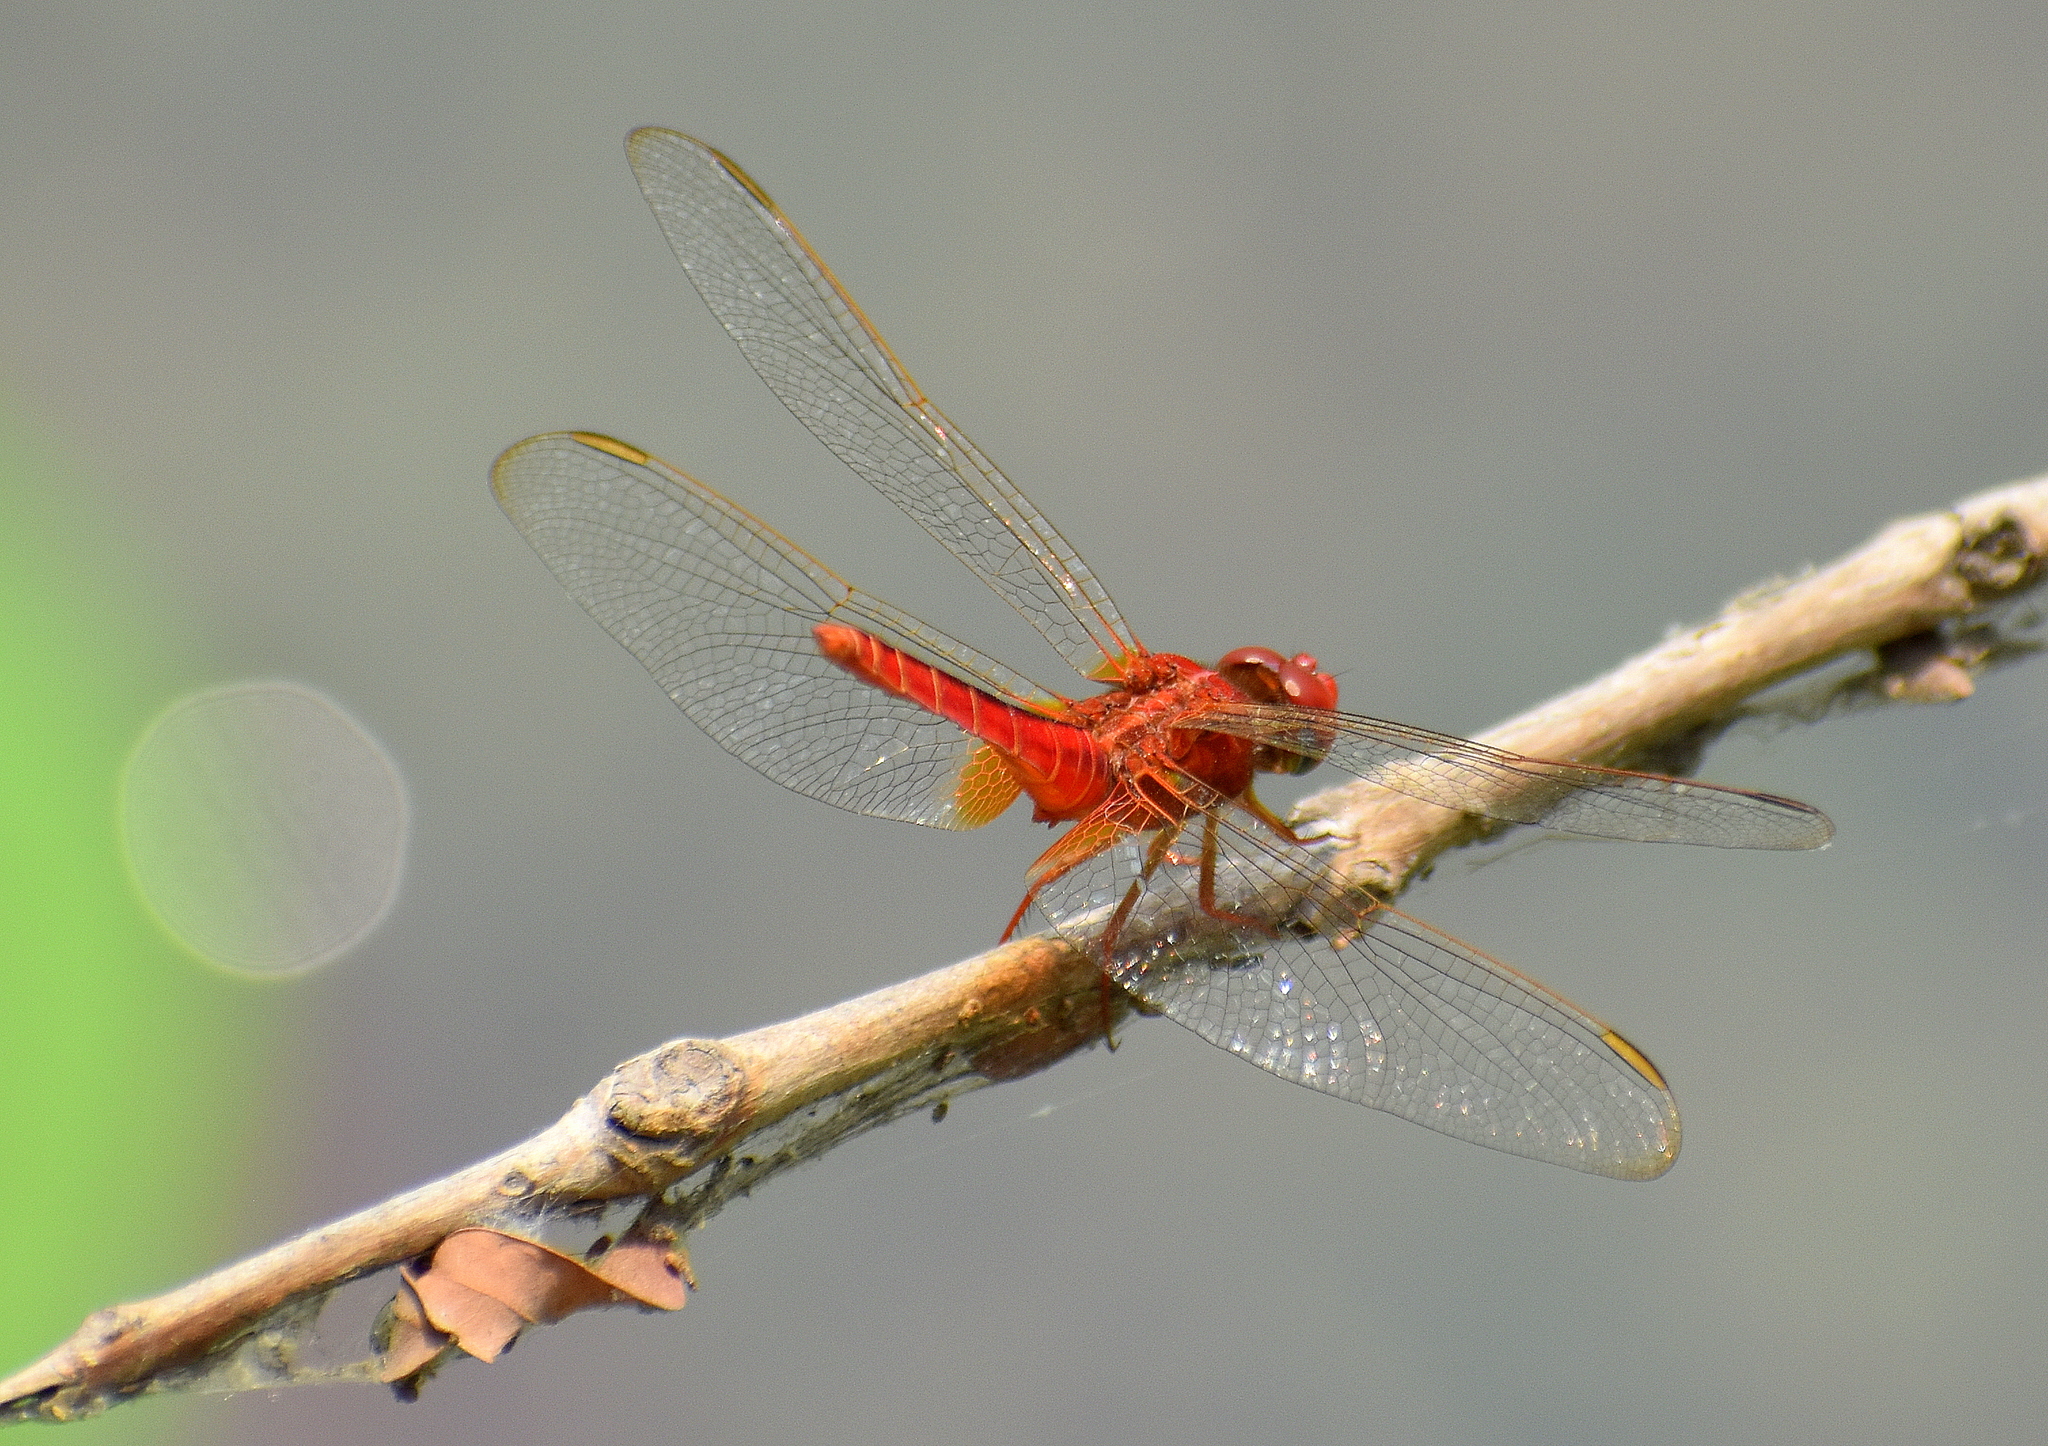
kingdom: Animalia
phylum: Arthropoda
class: Insecta
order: Odonata
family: Libellulidae
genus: Crocothemis
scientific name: Crocothemis servilia
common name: Scarlet skimmer
